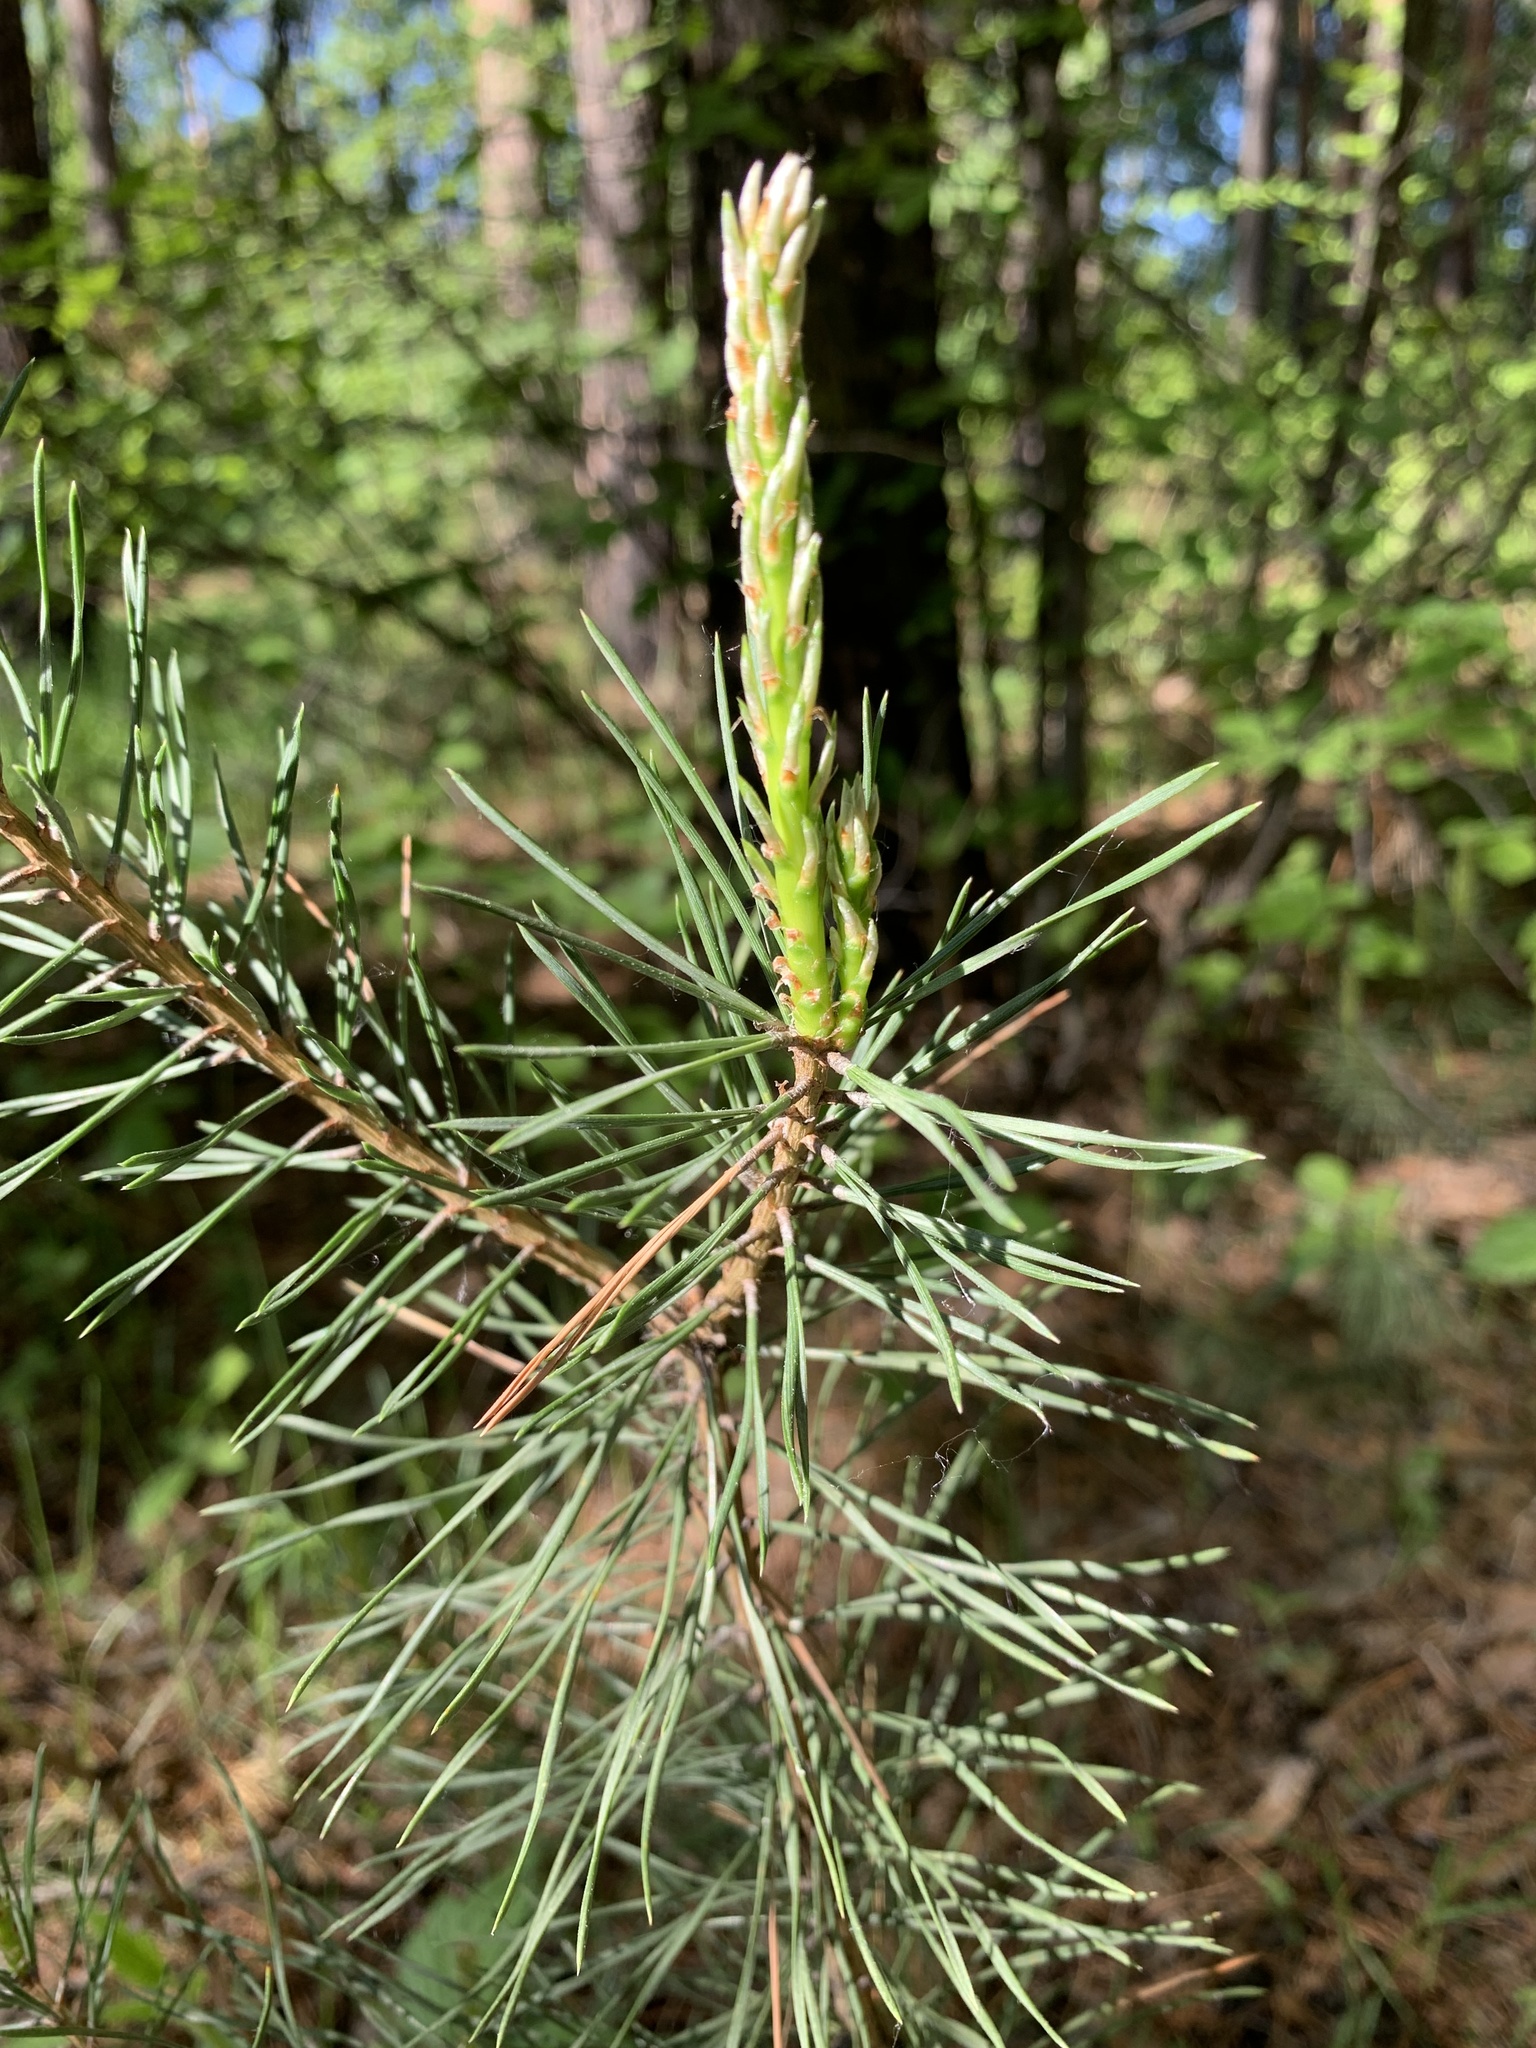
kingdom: Plantae
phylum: Tracheophyta
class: Pinopsida
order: Pinales
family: Pinaceae
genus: Pinus
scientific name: Pinus sylvestris
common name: Scots pine
